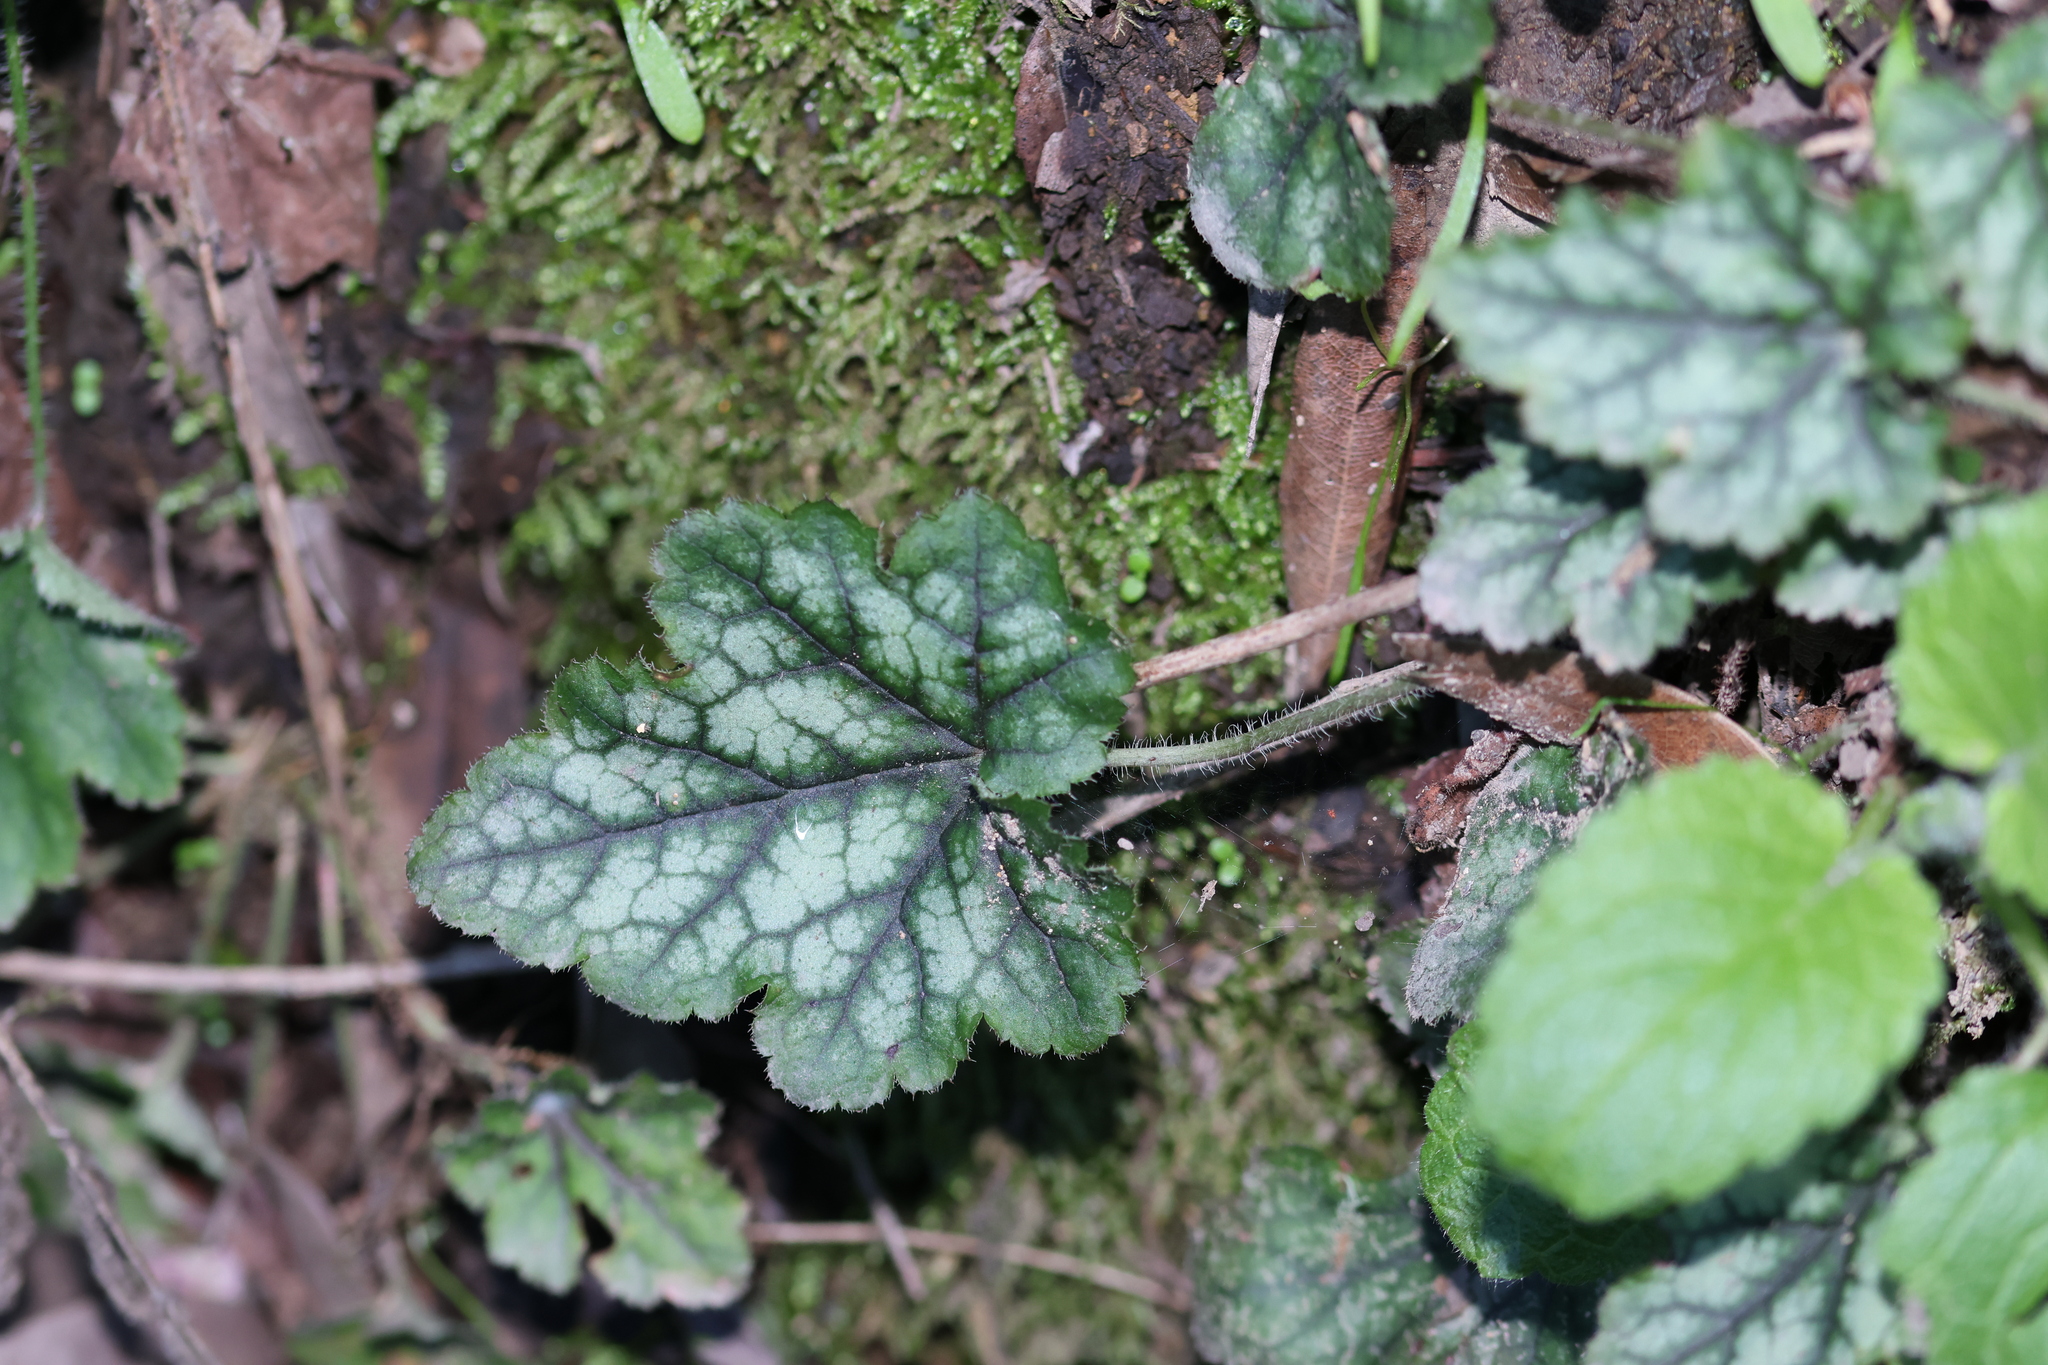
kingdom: Plantae
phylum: Tracheophyta
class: Magnoliopsida
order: Saxifragales
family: Saxifragaceae
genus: Heuchera
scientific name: Heuchera micrantha
